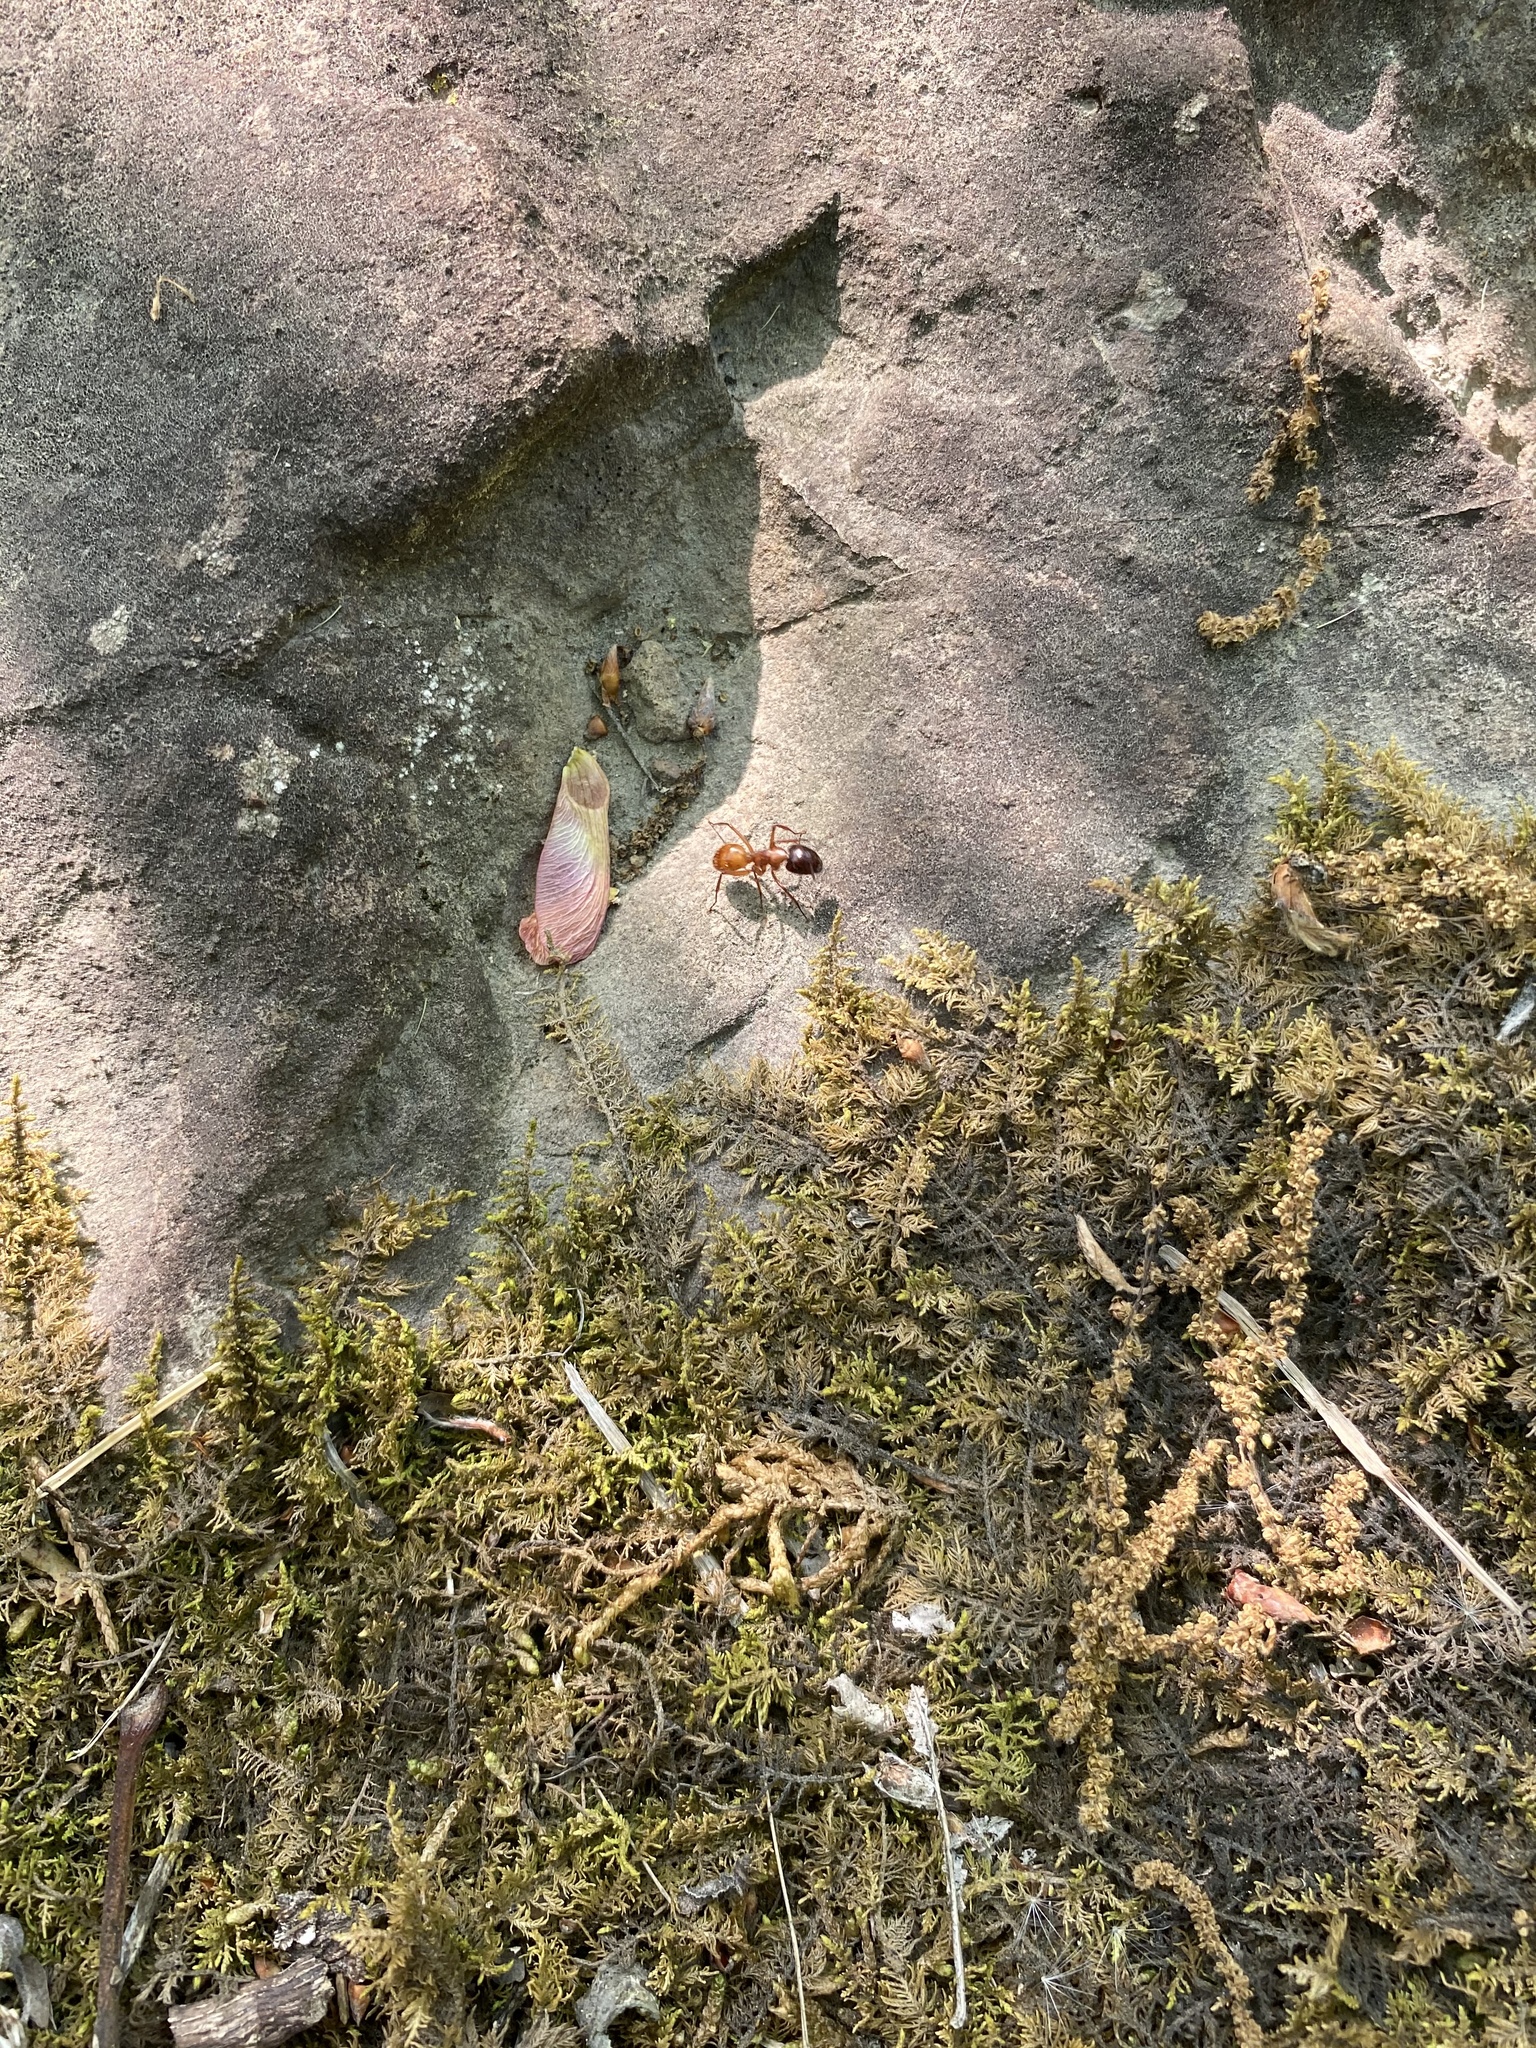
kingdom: Animalia
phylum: Arthropoda
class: Insecta
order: Hymenoptera
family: Formicidae
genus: Camponotus
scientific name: Camponotus americanus
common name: American carpenter ant
